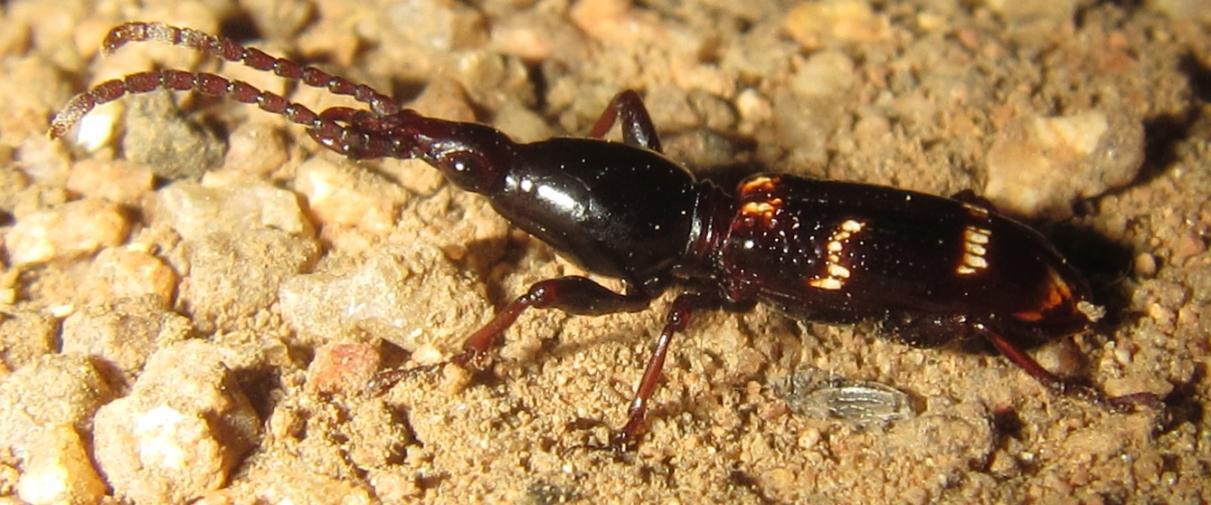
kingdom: Animalia
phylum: Arthropoda
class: Insecta
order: Coleoptera
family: Brentidae
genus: Orfilaia
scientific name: Orfilaia vulsellata
